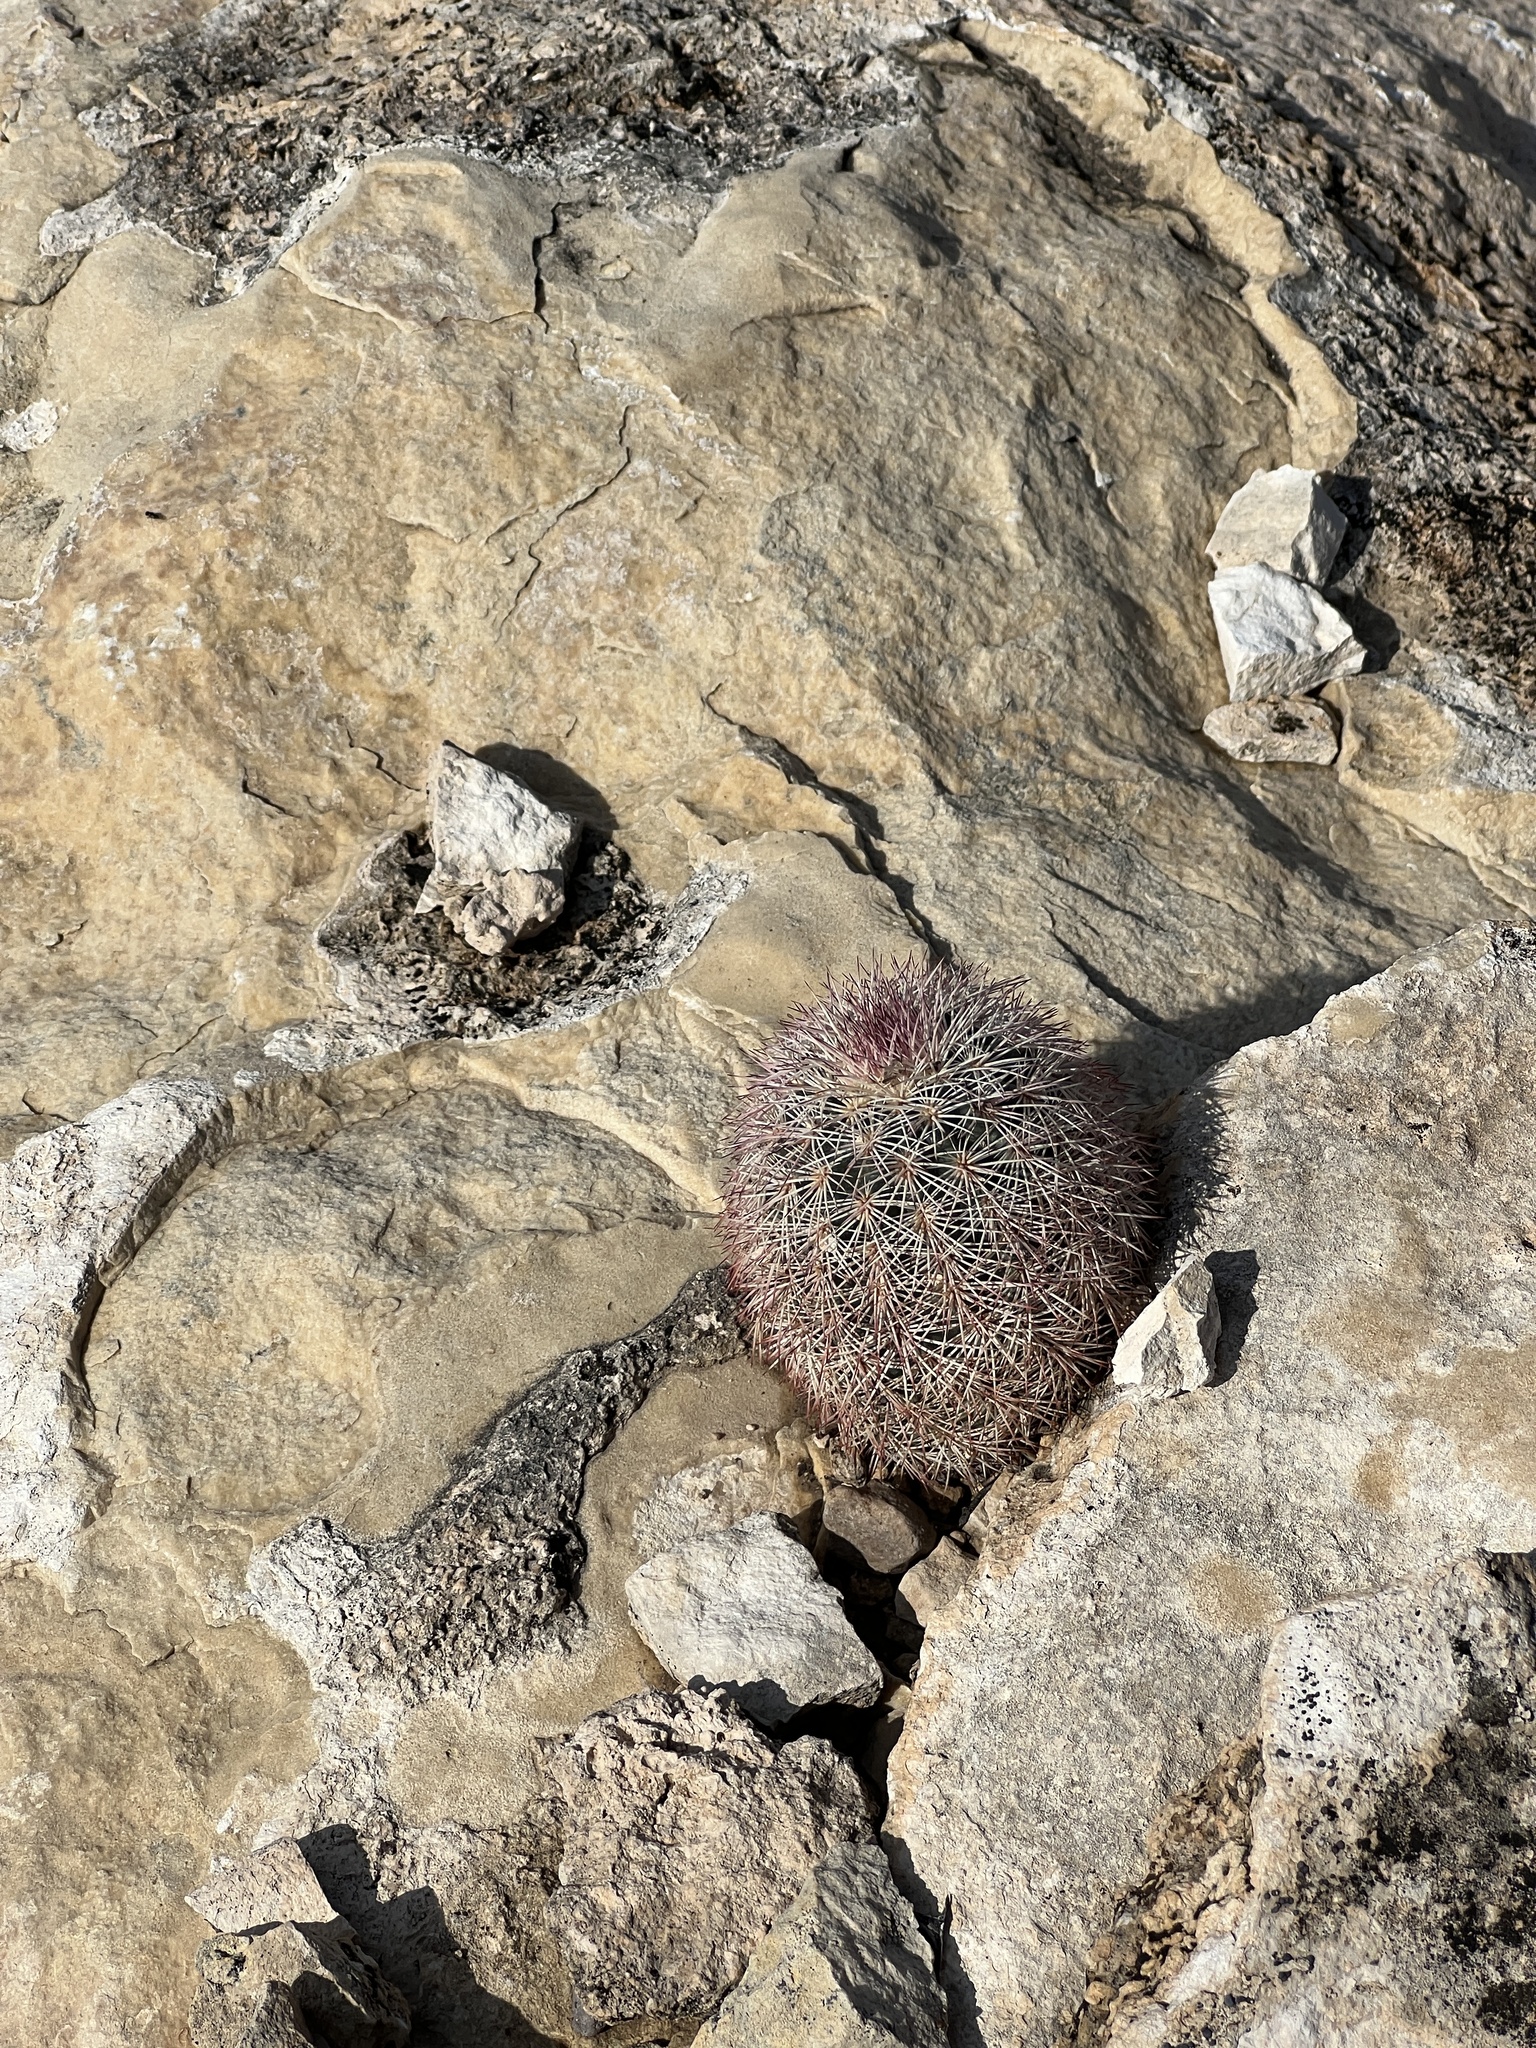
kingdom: Plantae
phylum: Tracheophyta
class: Magnoliopsida
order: Caryophyllales
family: Cactaceae
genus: Echinocereus
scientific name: Echinocereus dasyacanthus
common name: Spiny hedgehog cactus
